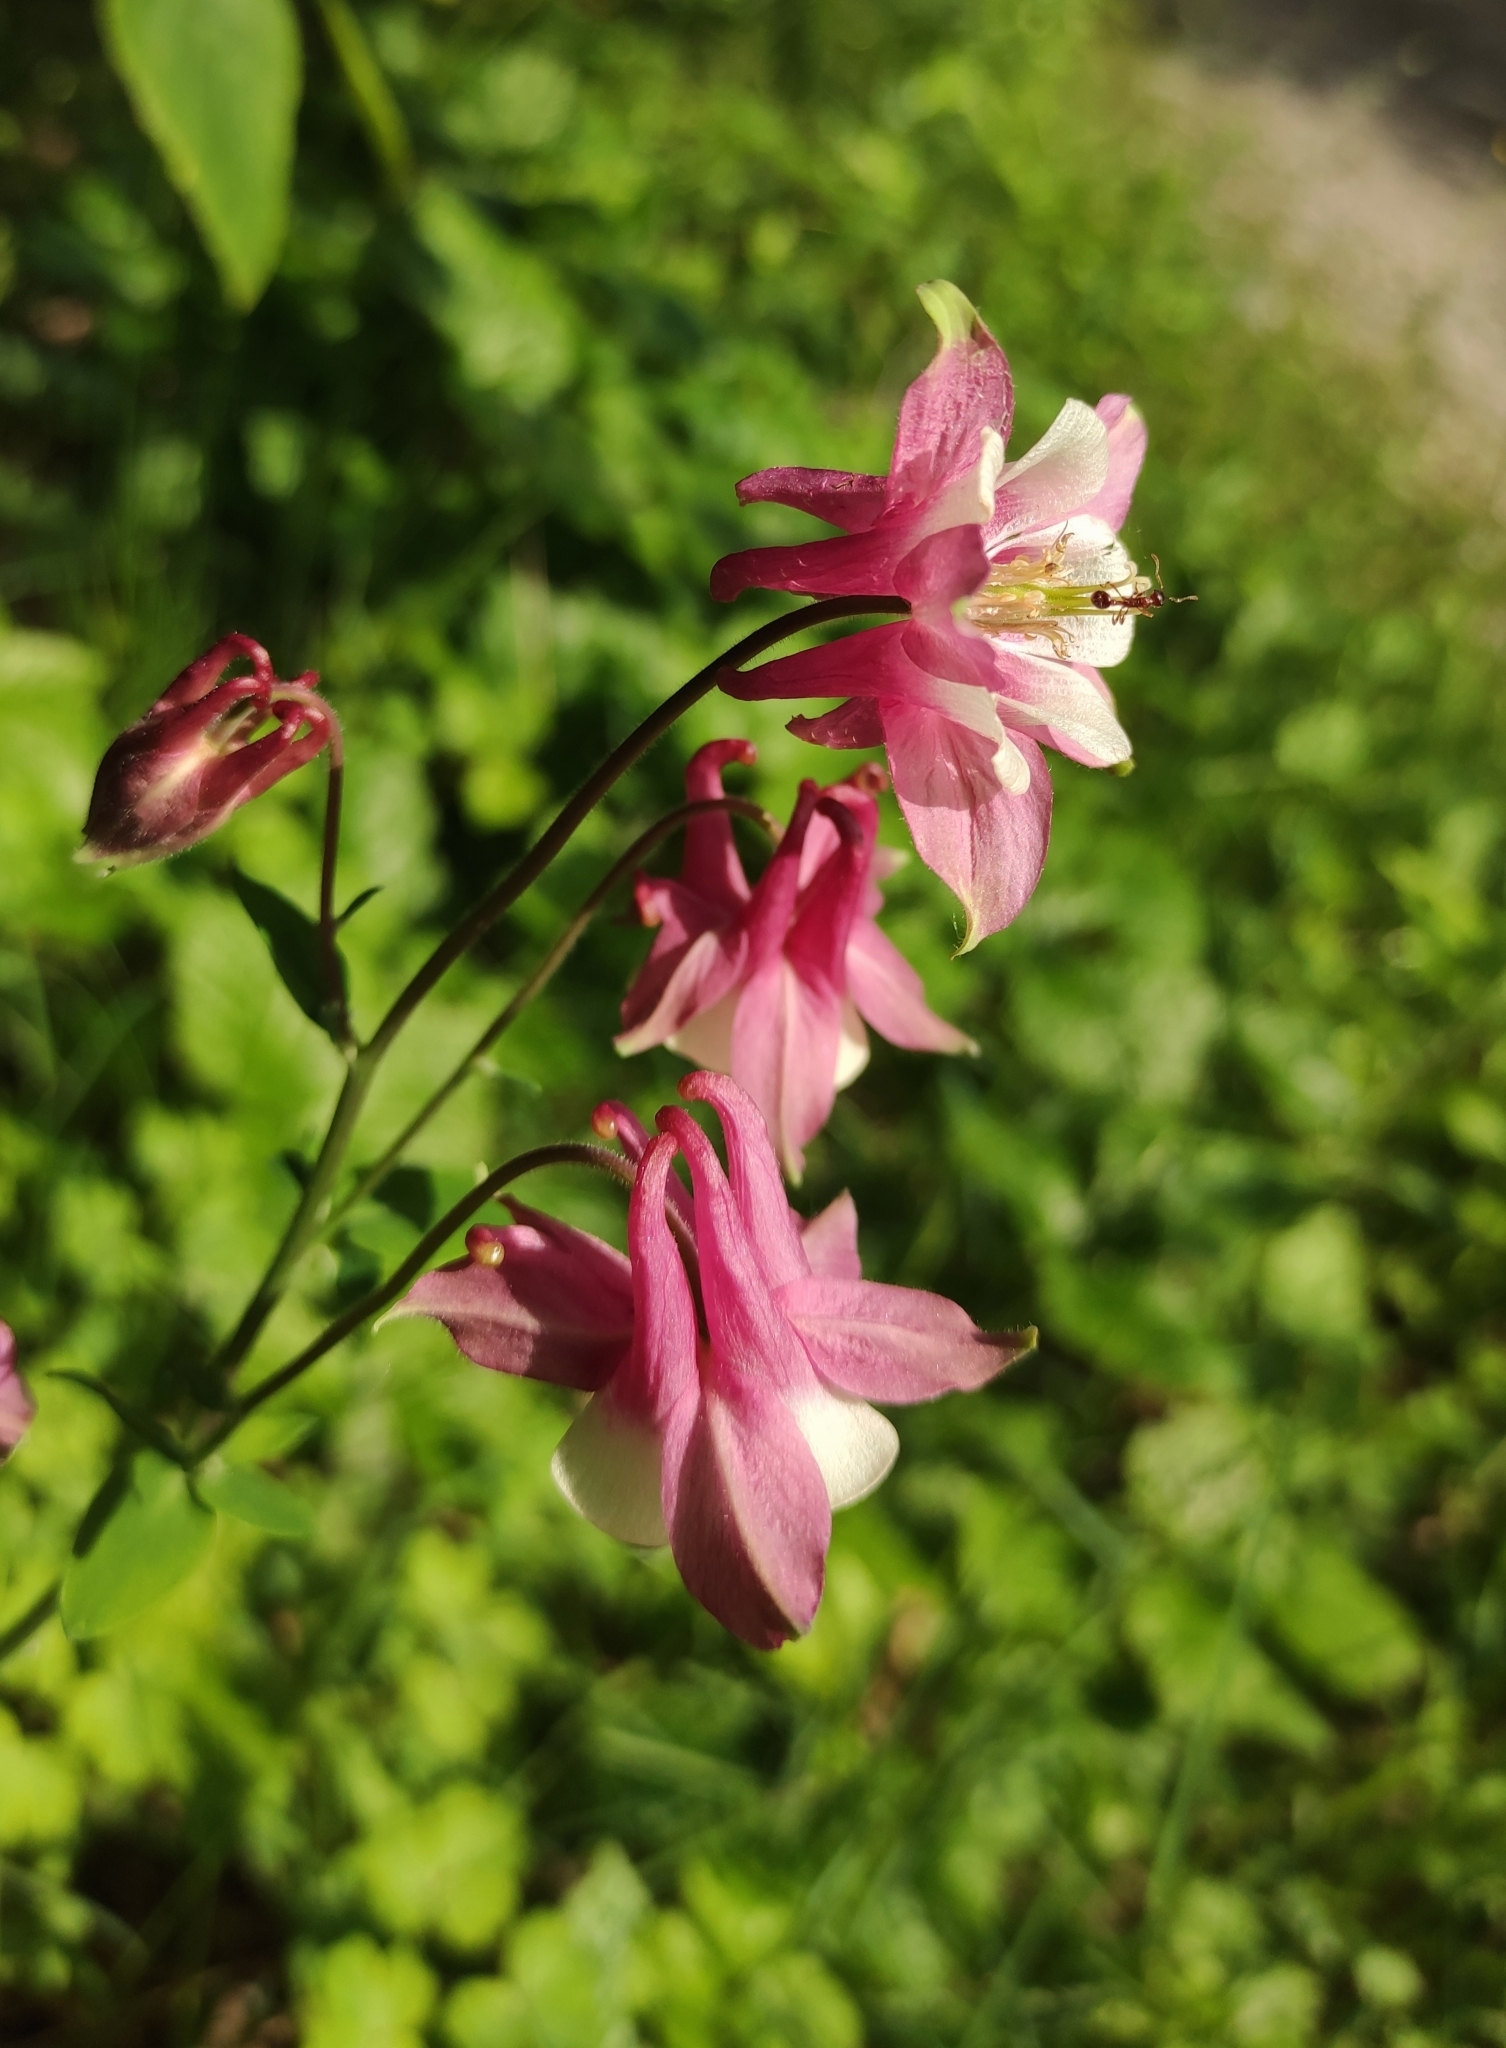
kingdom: Plantae
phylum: Tracheophyta
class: Magnoliopsida
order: Ranunculales
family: Ranunculaceae
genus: Aquilegia
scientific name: Aquilegia vulgaris
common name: Columbine
